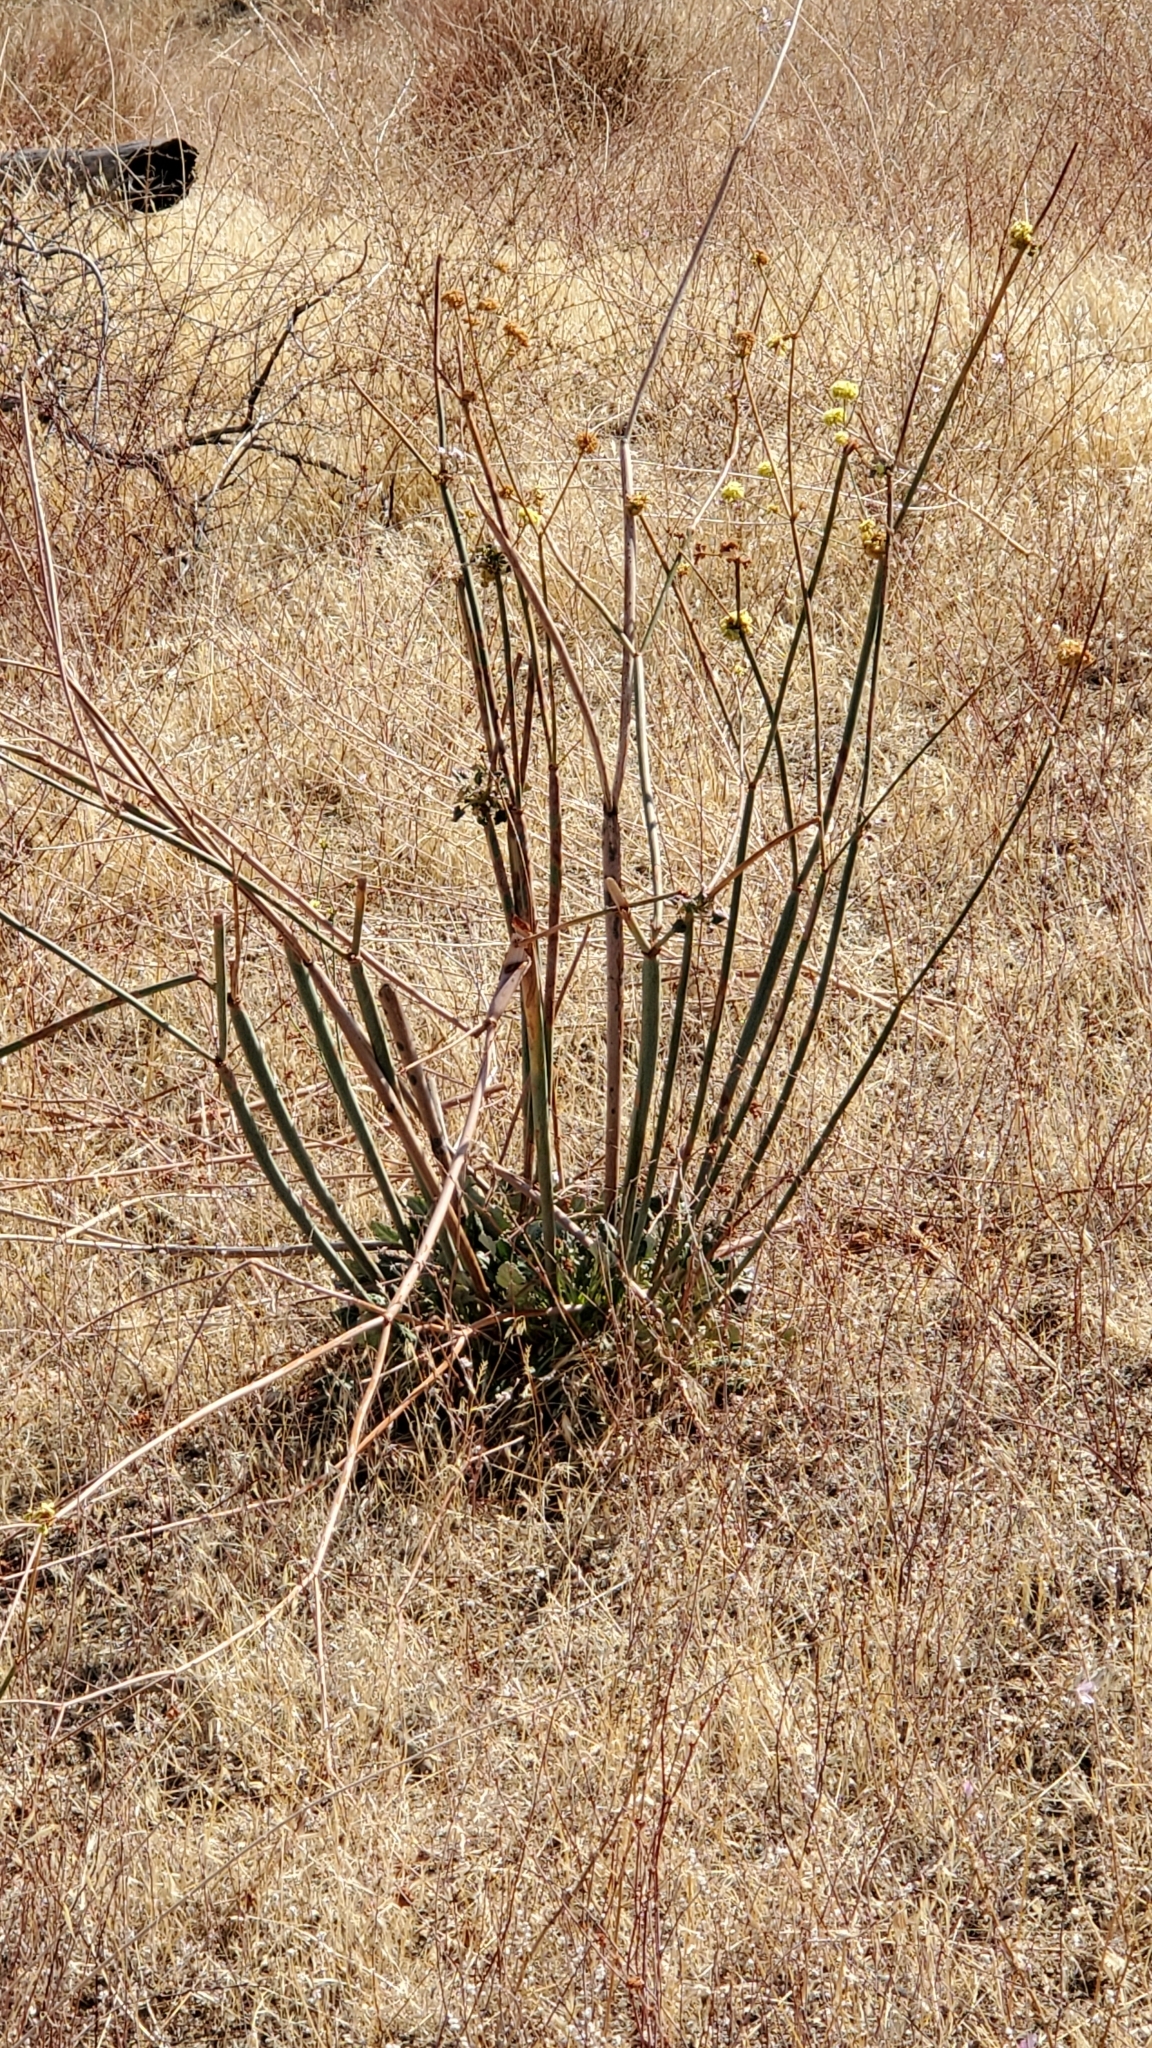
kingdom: Plantae
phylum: Tracheophyta
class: Magnoliopsida
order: Caryophyllales
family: Polygonaceae
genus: Eriogonum
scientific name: Eriogonum inflatum
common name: Desert trumpet
